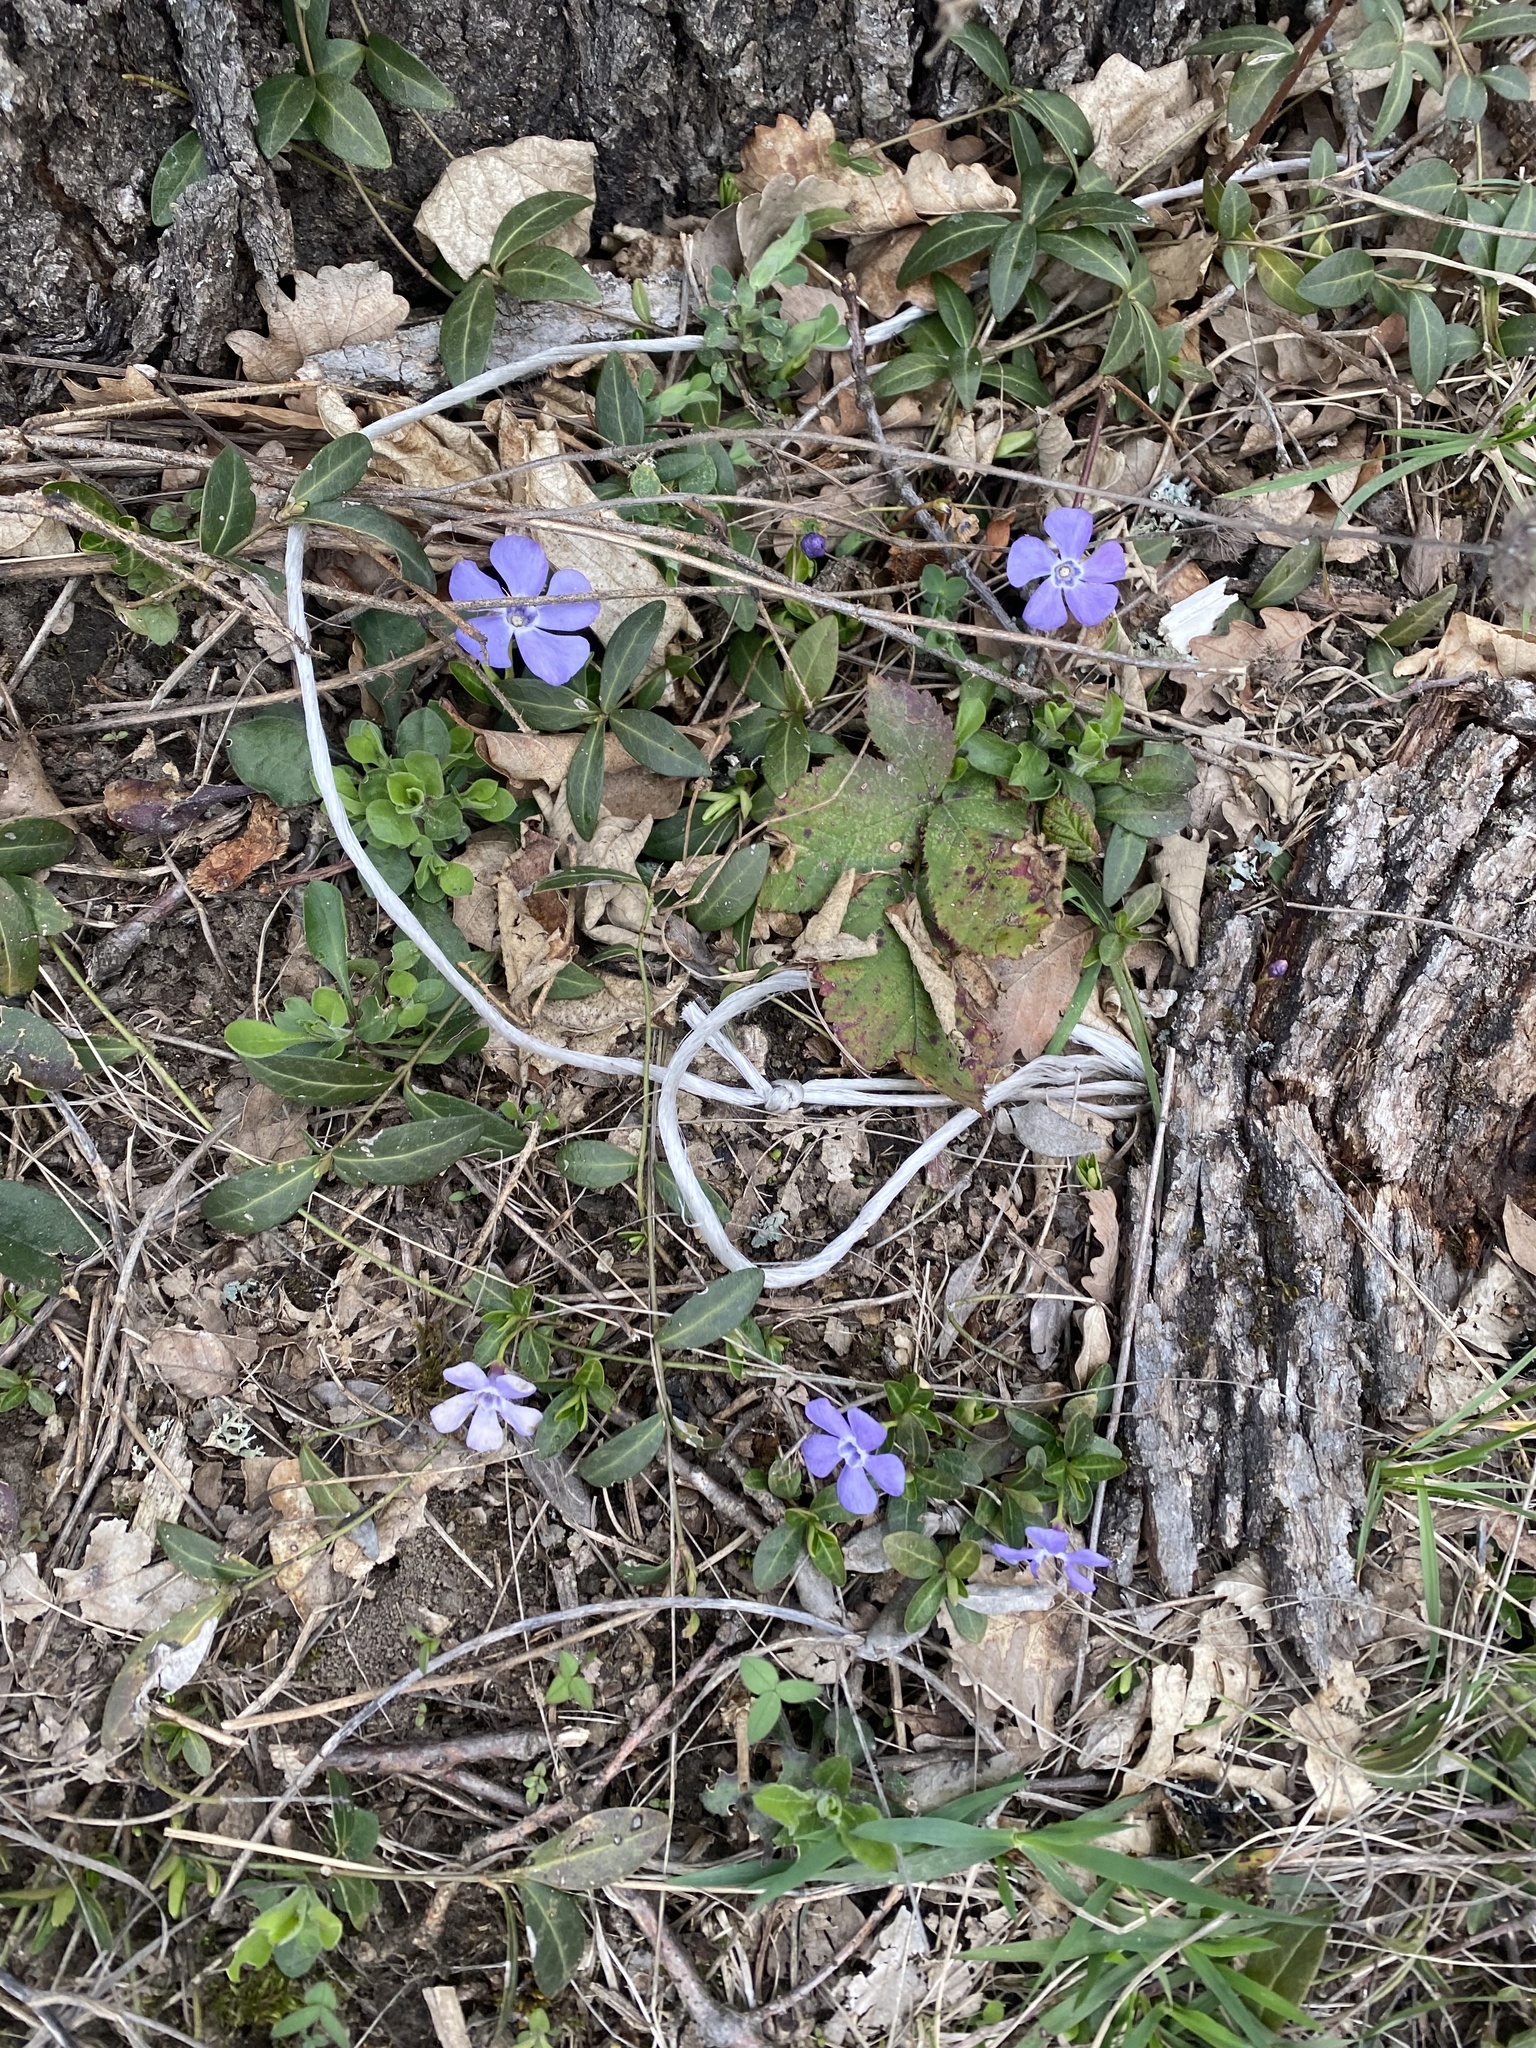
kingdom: Plantae
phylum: Tracheophyta
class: Magnoliopsida
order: Gentianales
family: Apocynaceae
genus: Vinca
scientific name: Vinca minor
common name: Lesser periwinkle
